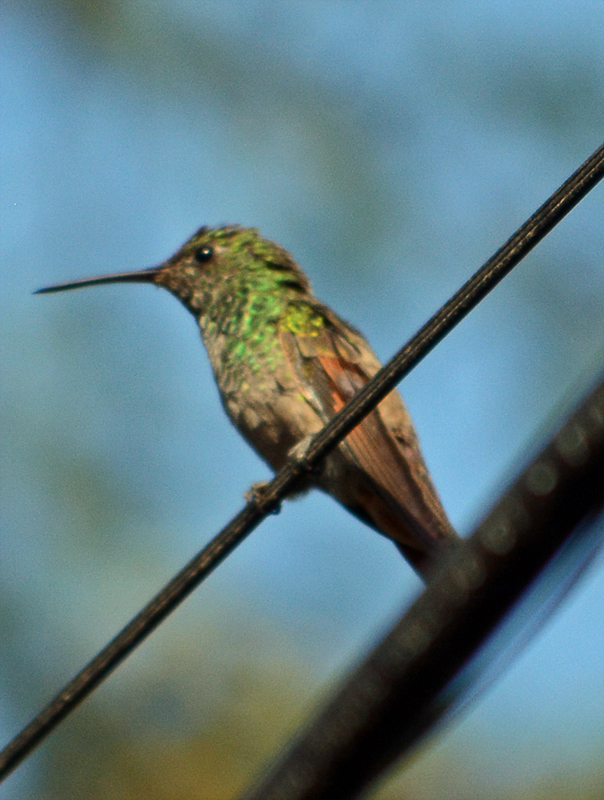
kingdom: Animalia
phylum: Chordata
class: Aves
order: Apodiformes
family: Trochilidae
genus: Saucerottia
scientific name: Saucerottia beryllina
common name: Berylline hummingbird
